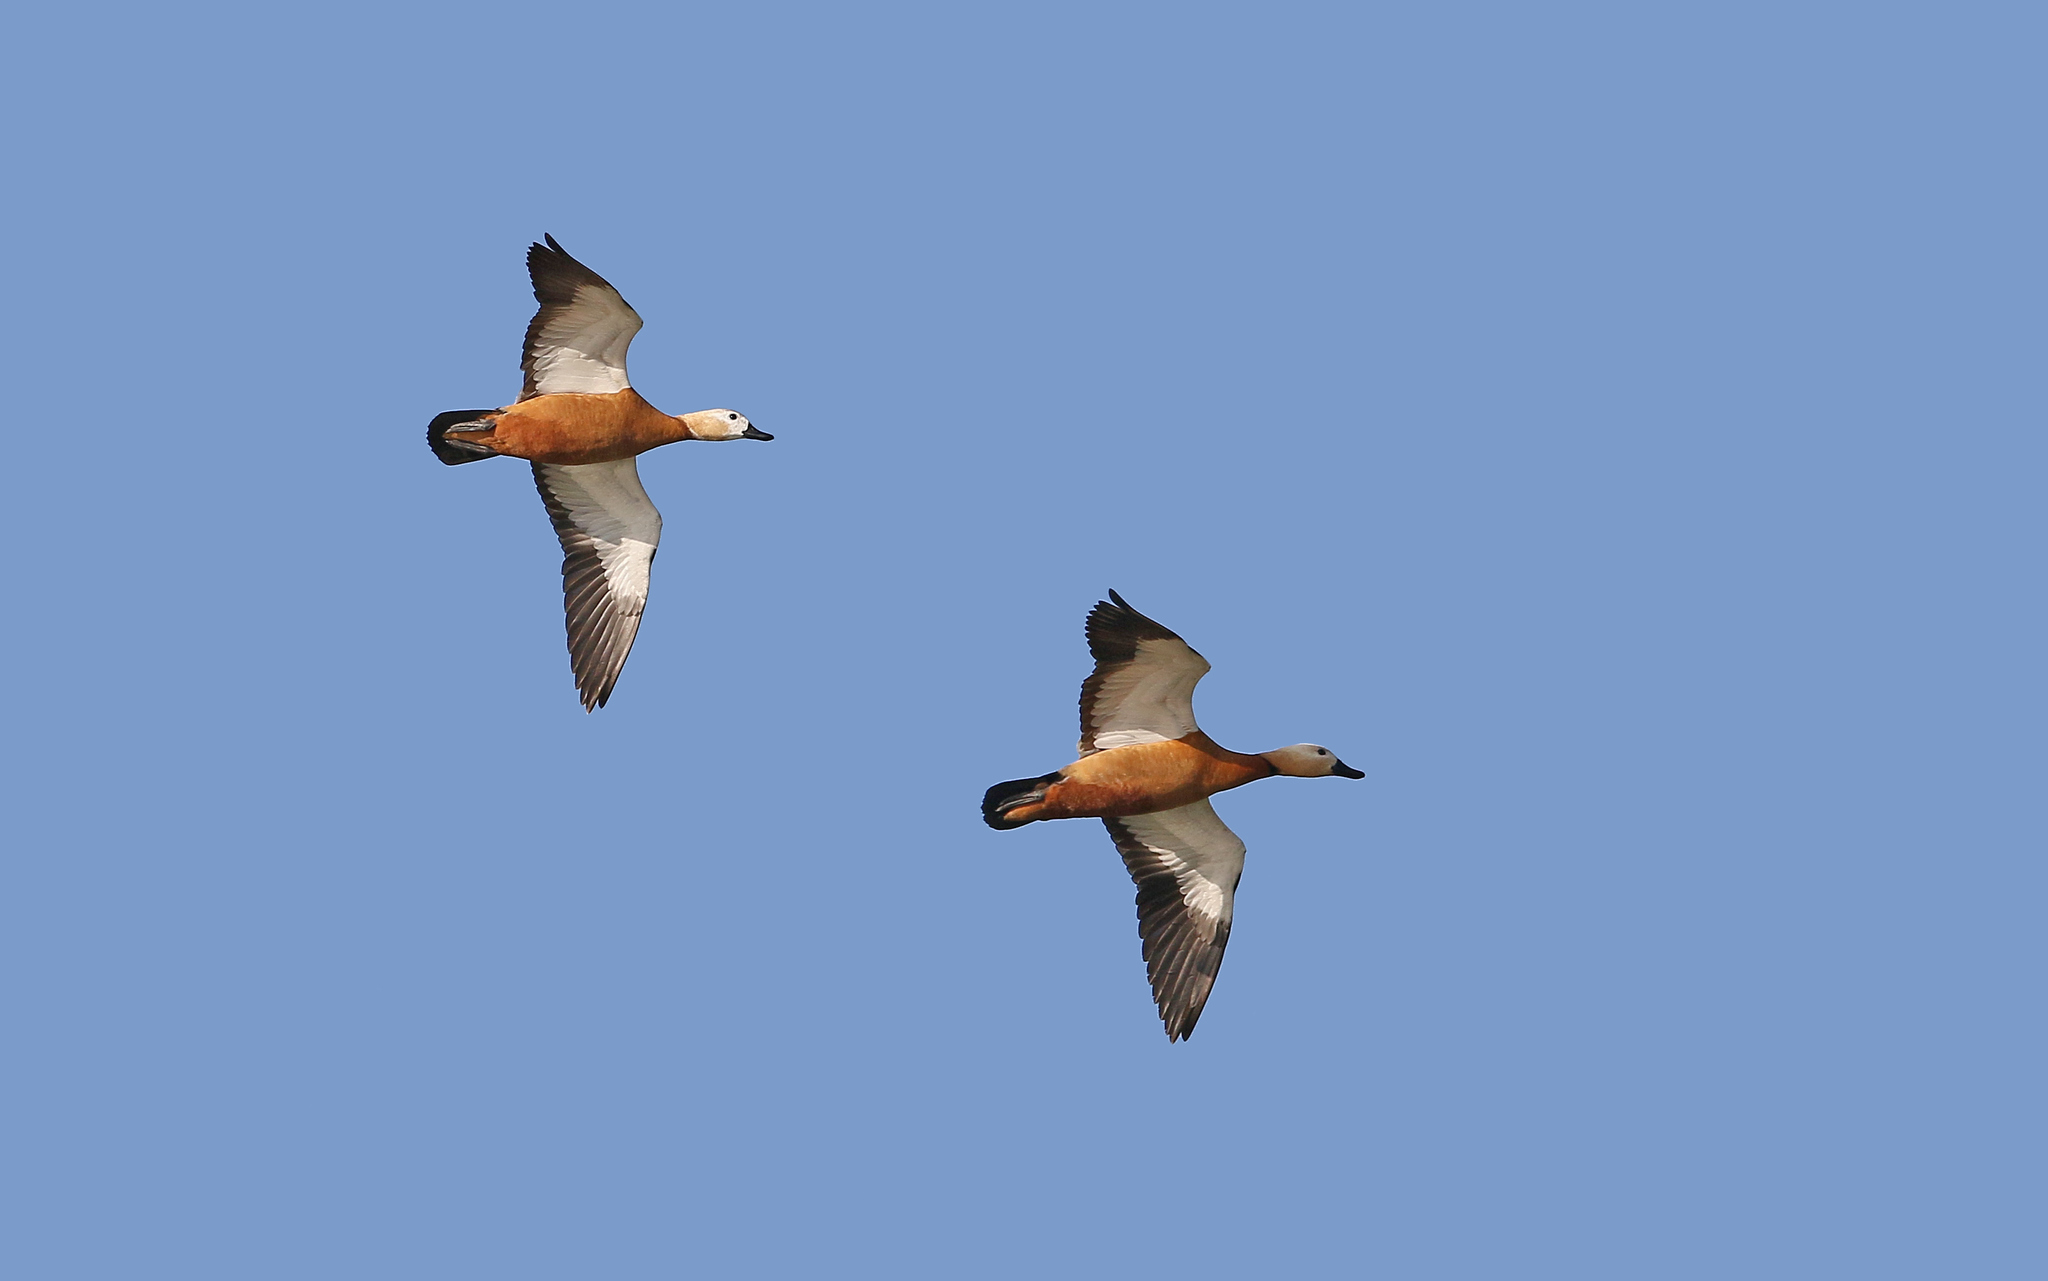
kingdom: Animalia
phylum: Chordata
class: Aves
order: Anseriformes
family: Anatidae
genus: Tadorna
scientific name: Tadorna ferruginea
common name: Ruddy shelduck
